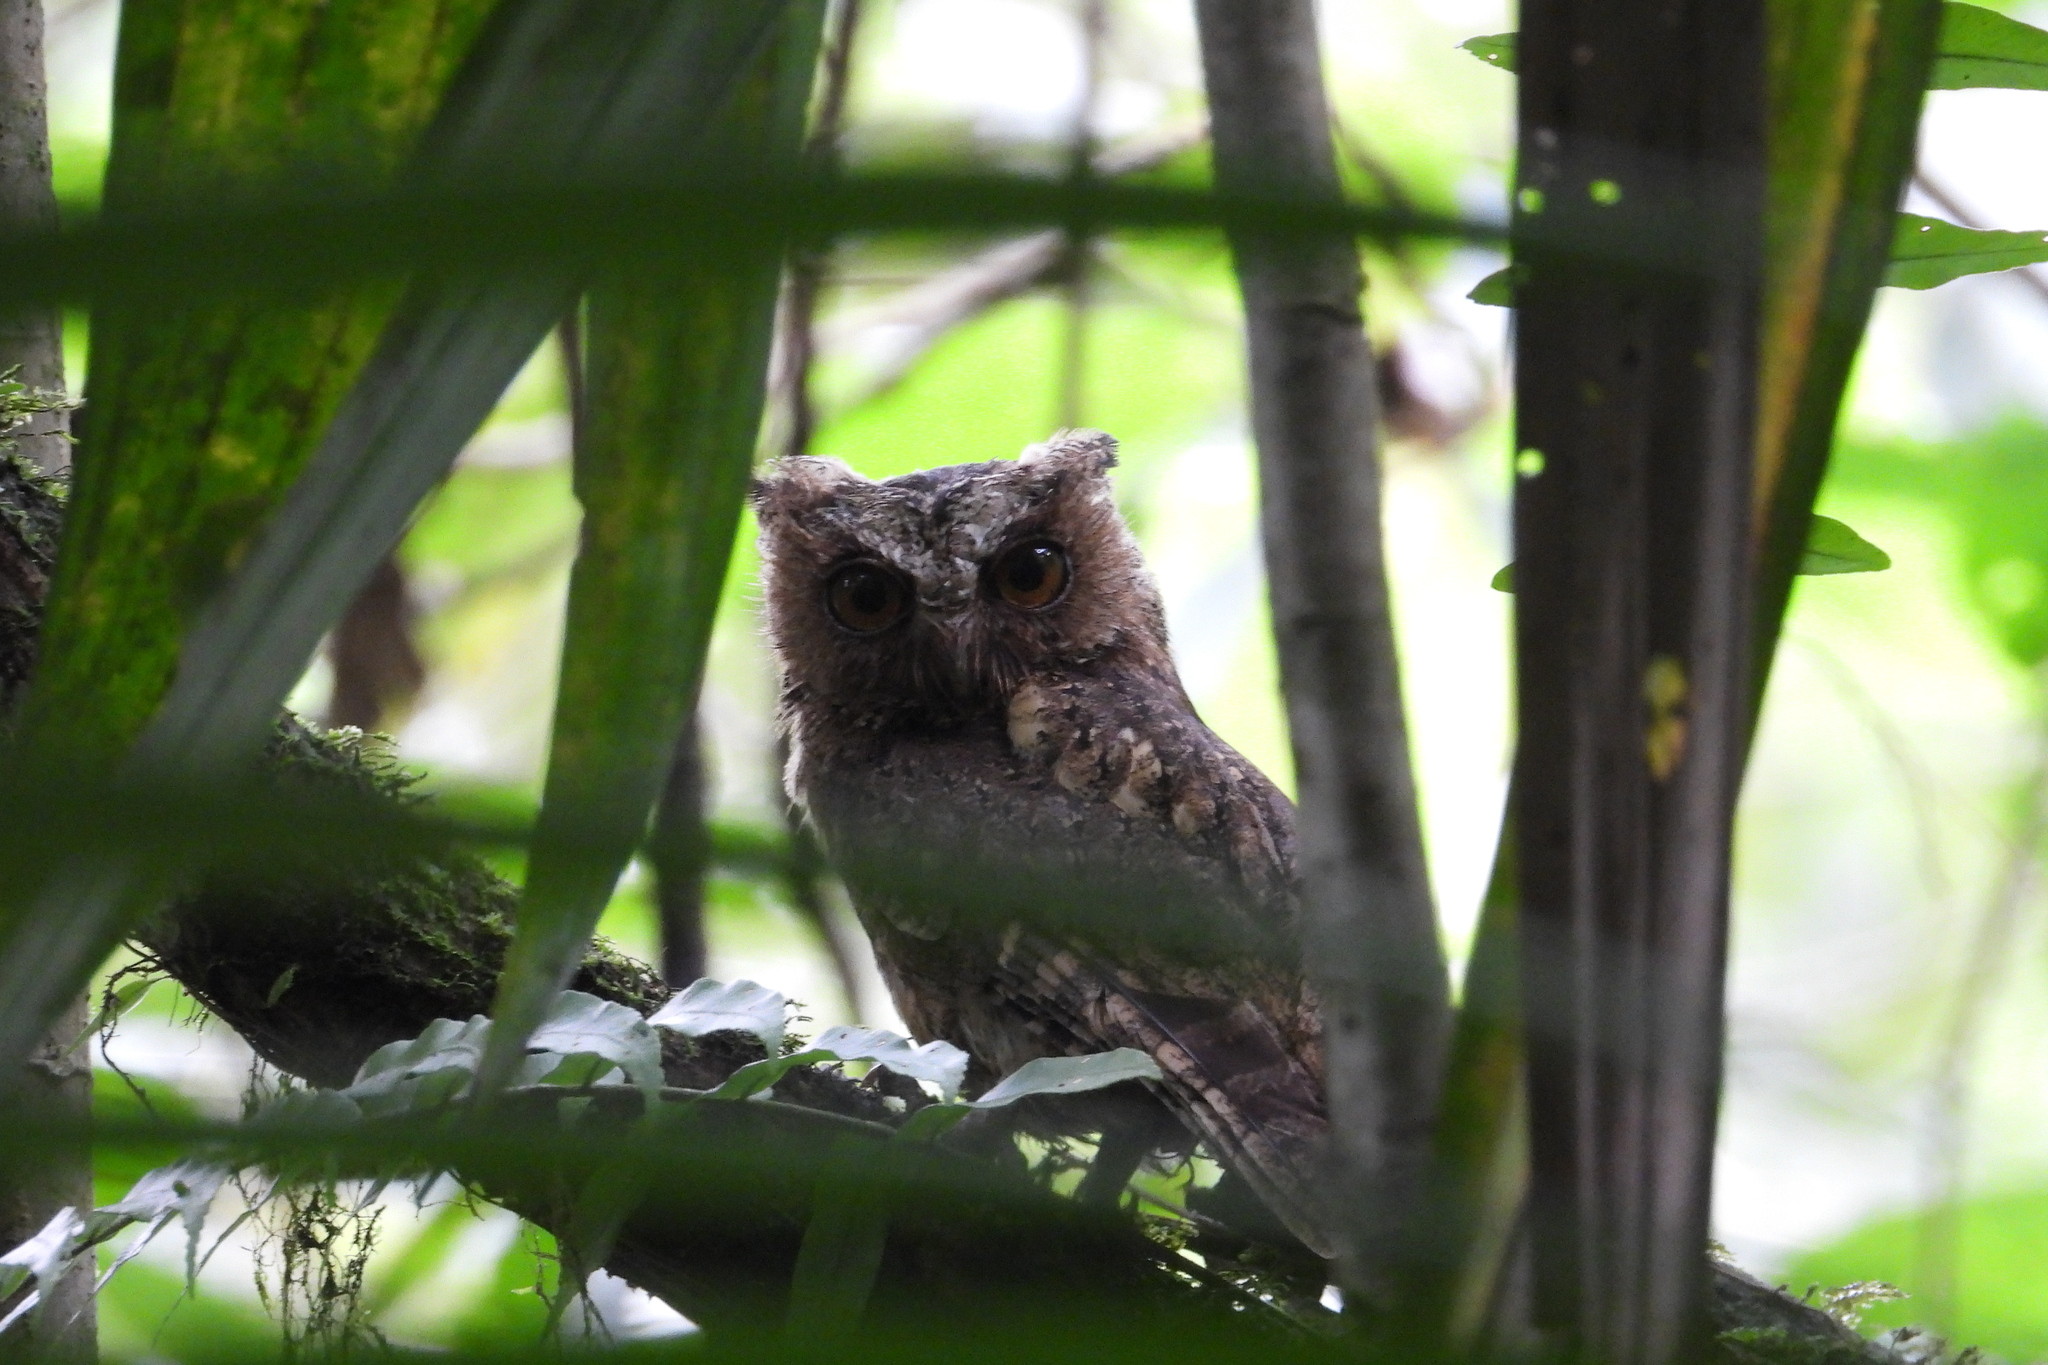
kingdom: Animalia
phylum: Chordata
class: Aves
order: Strigiformes
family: Strigidae
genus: Otus
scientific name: Otus lempiji
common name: Sunda scops-owl
